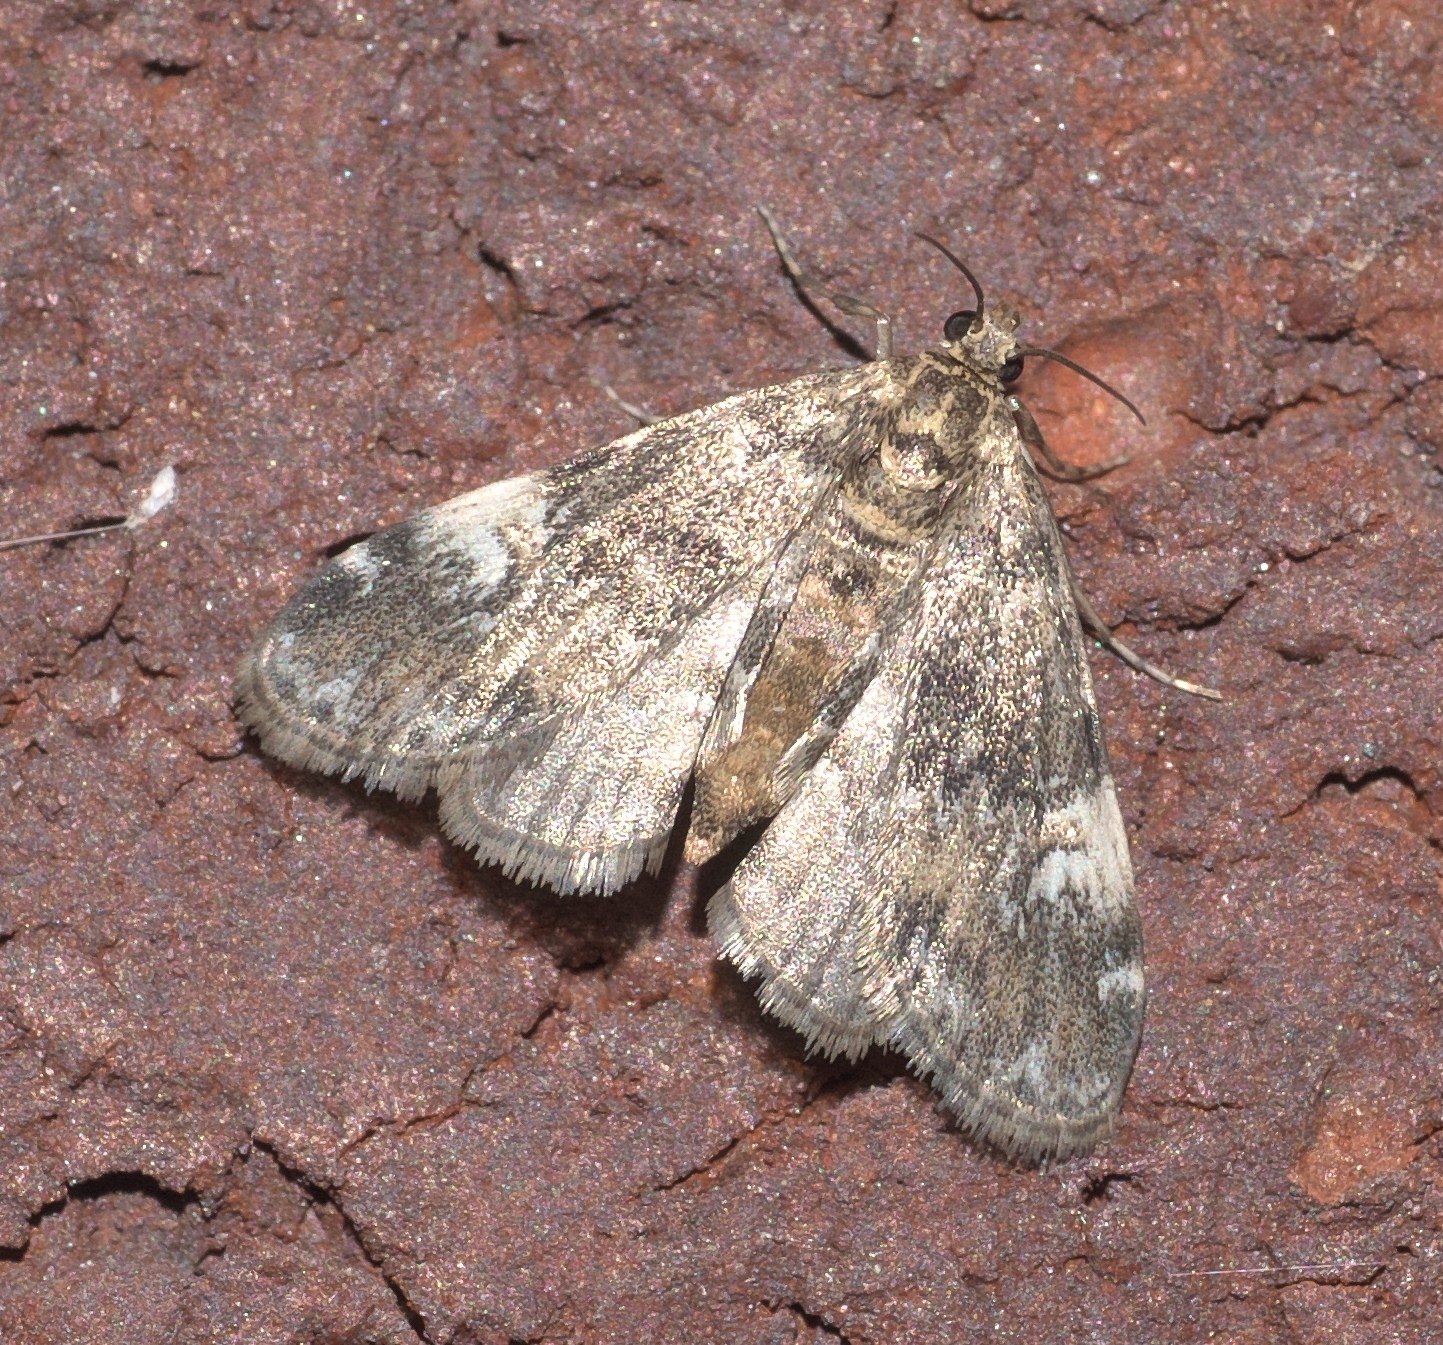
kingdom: Animalia
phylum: Arthropoda
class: Insecta
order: Lepidoptera
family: Crambidae
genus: Elophila
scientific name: Elophila obliteralis
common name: Waterlily leafcutter moth
